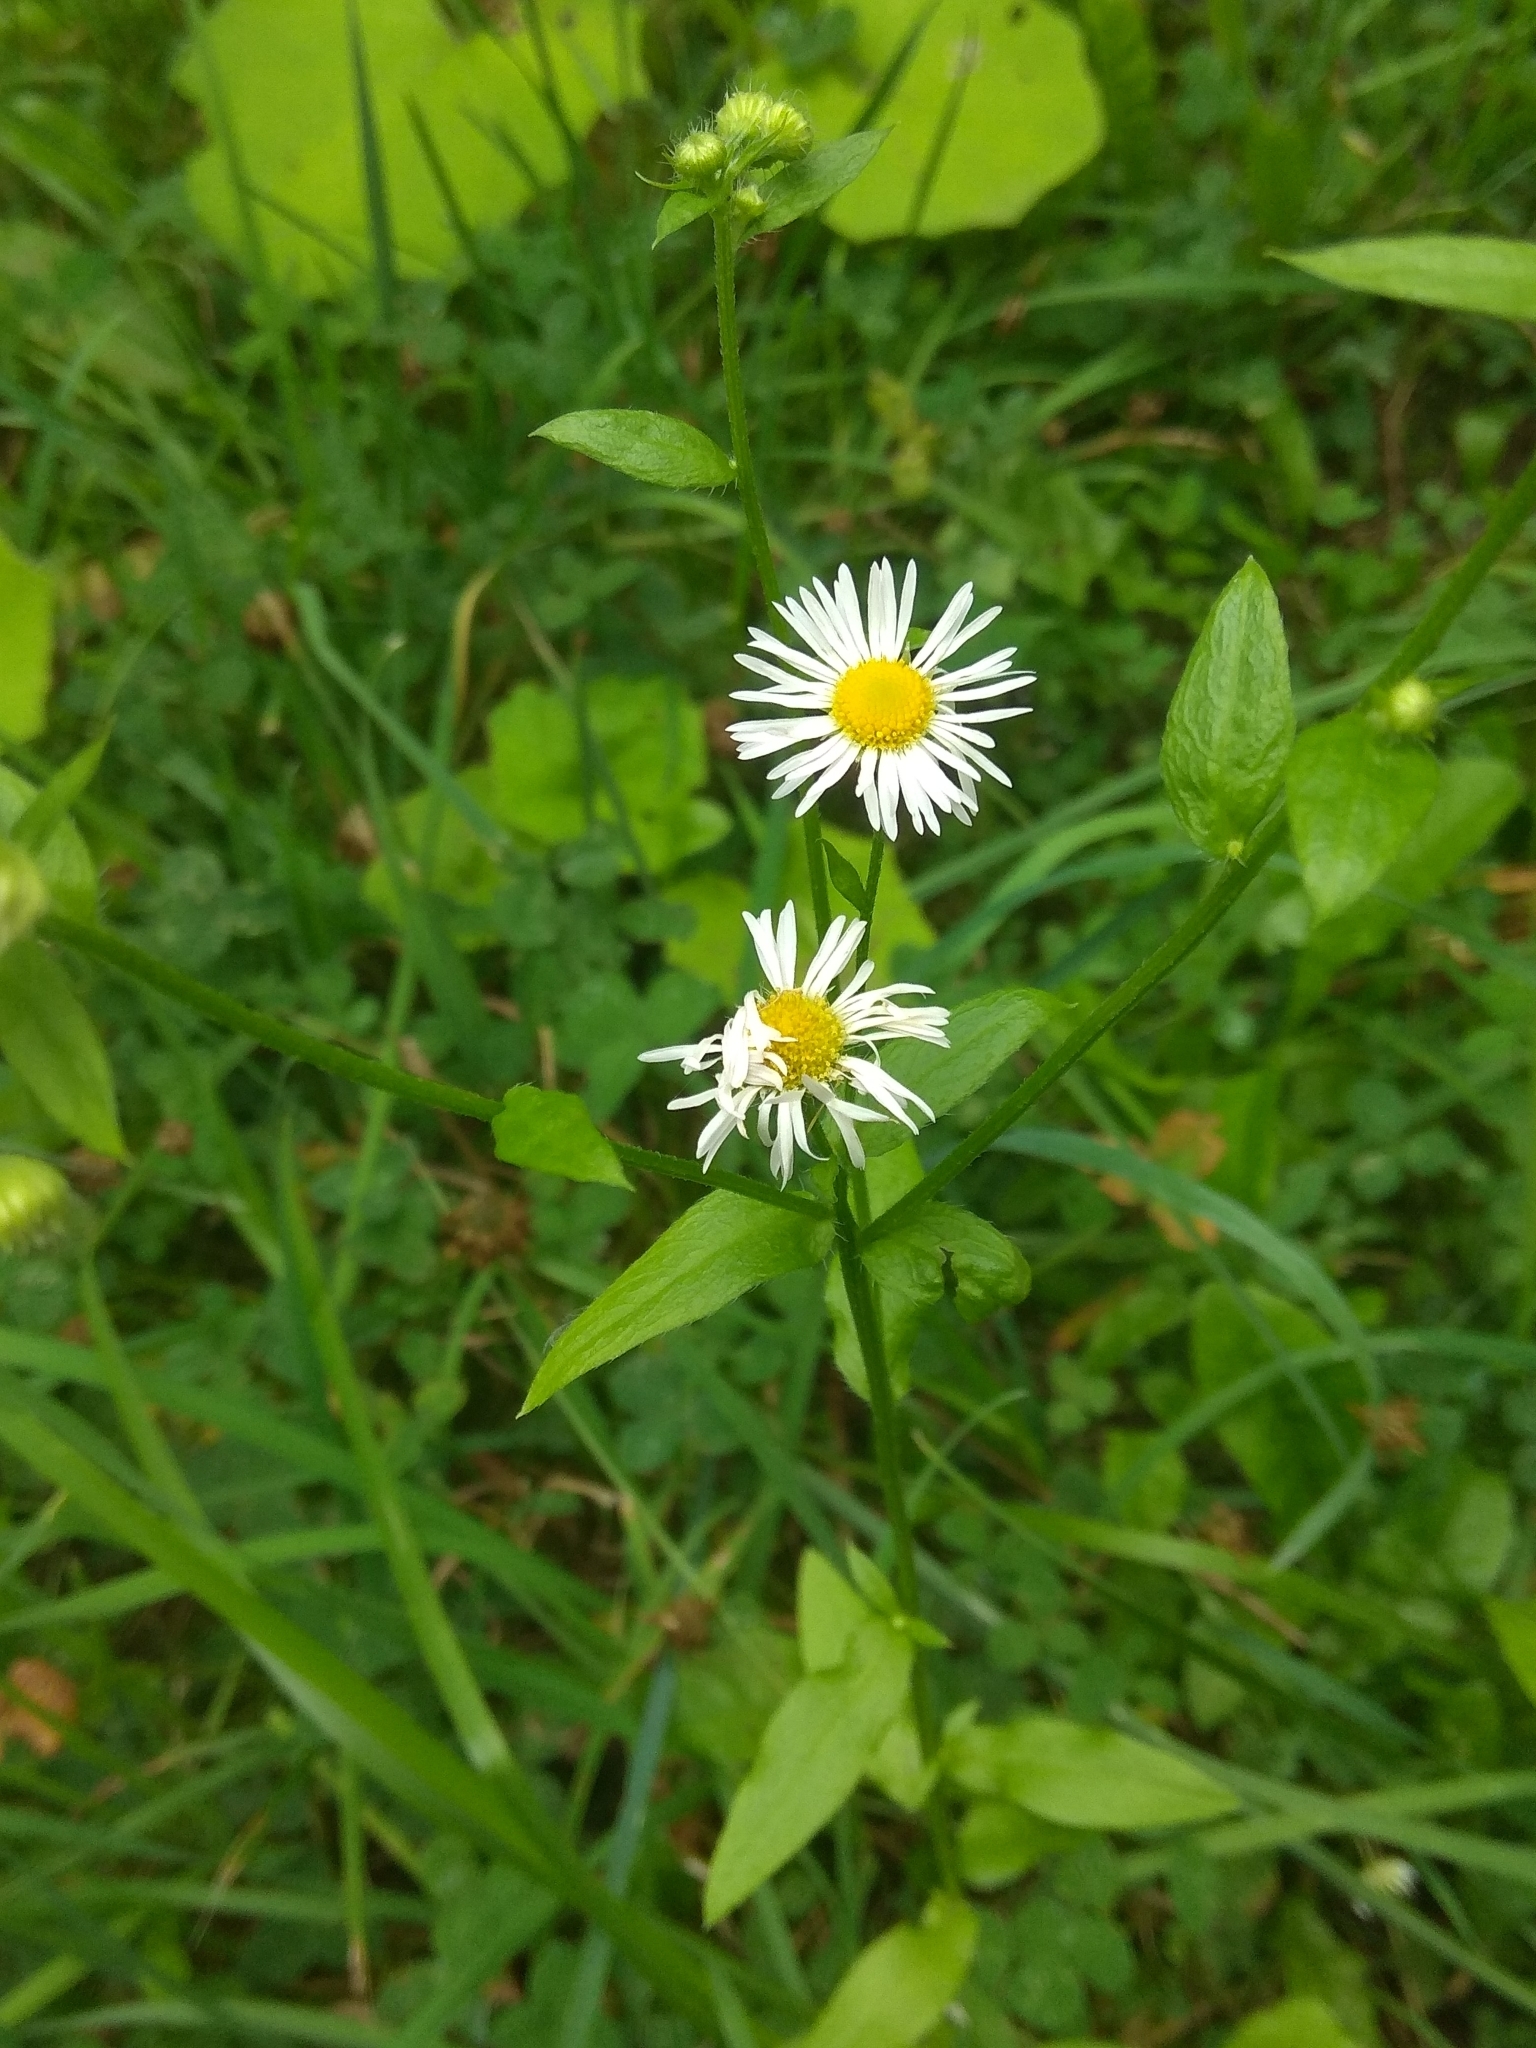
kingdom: Plantae
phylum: Tracheophyta
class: Magnoliopsida
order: Asterales
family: Asteraceae
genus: Erigeron
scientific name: Erigeron annuus
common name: Tall fleabane
